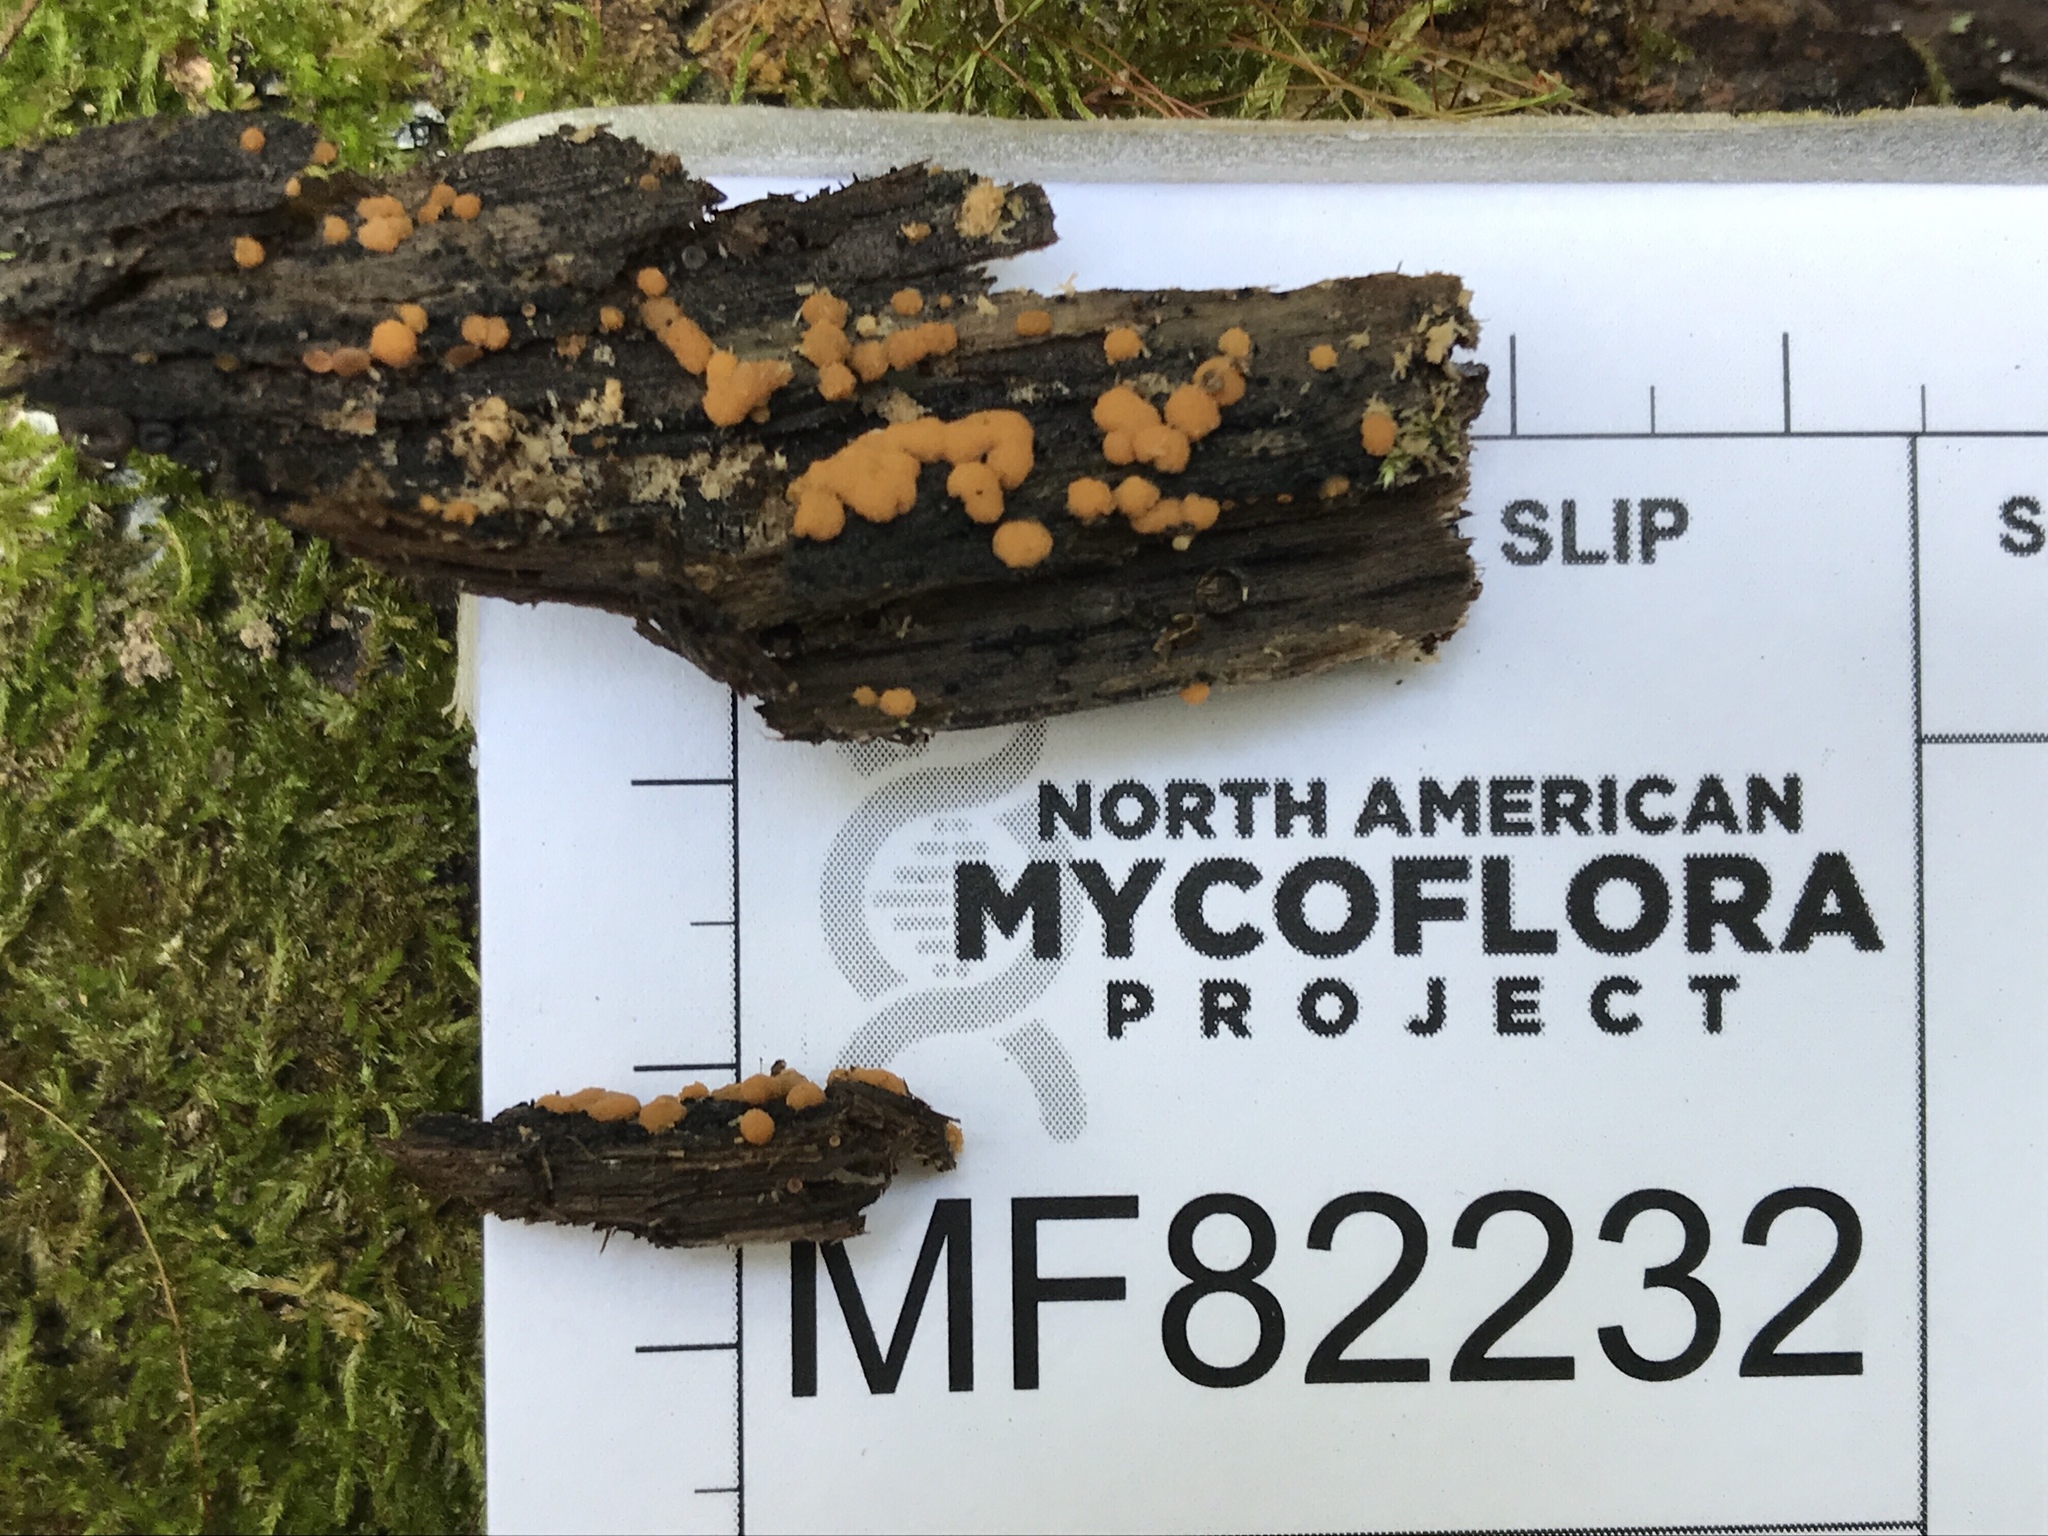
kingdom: Fungi
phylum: Ascomycota
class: Pezizomycetes
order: Pezizales
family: Pyronemataceae
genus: Sphaerosporium
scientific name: Sphaerosporium lignatile
